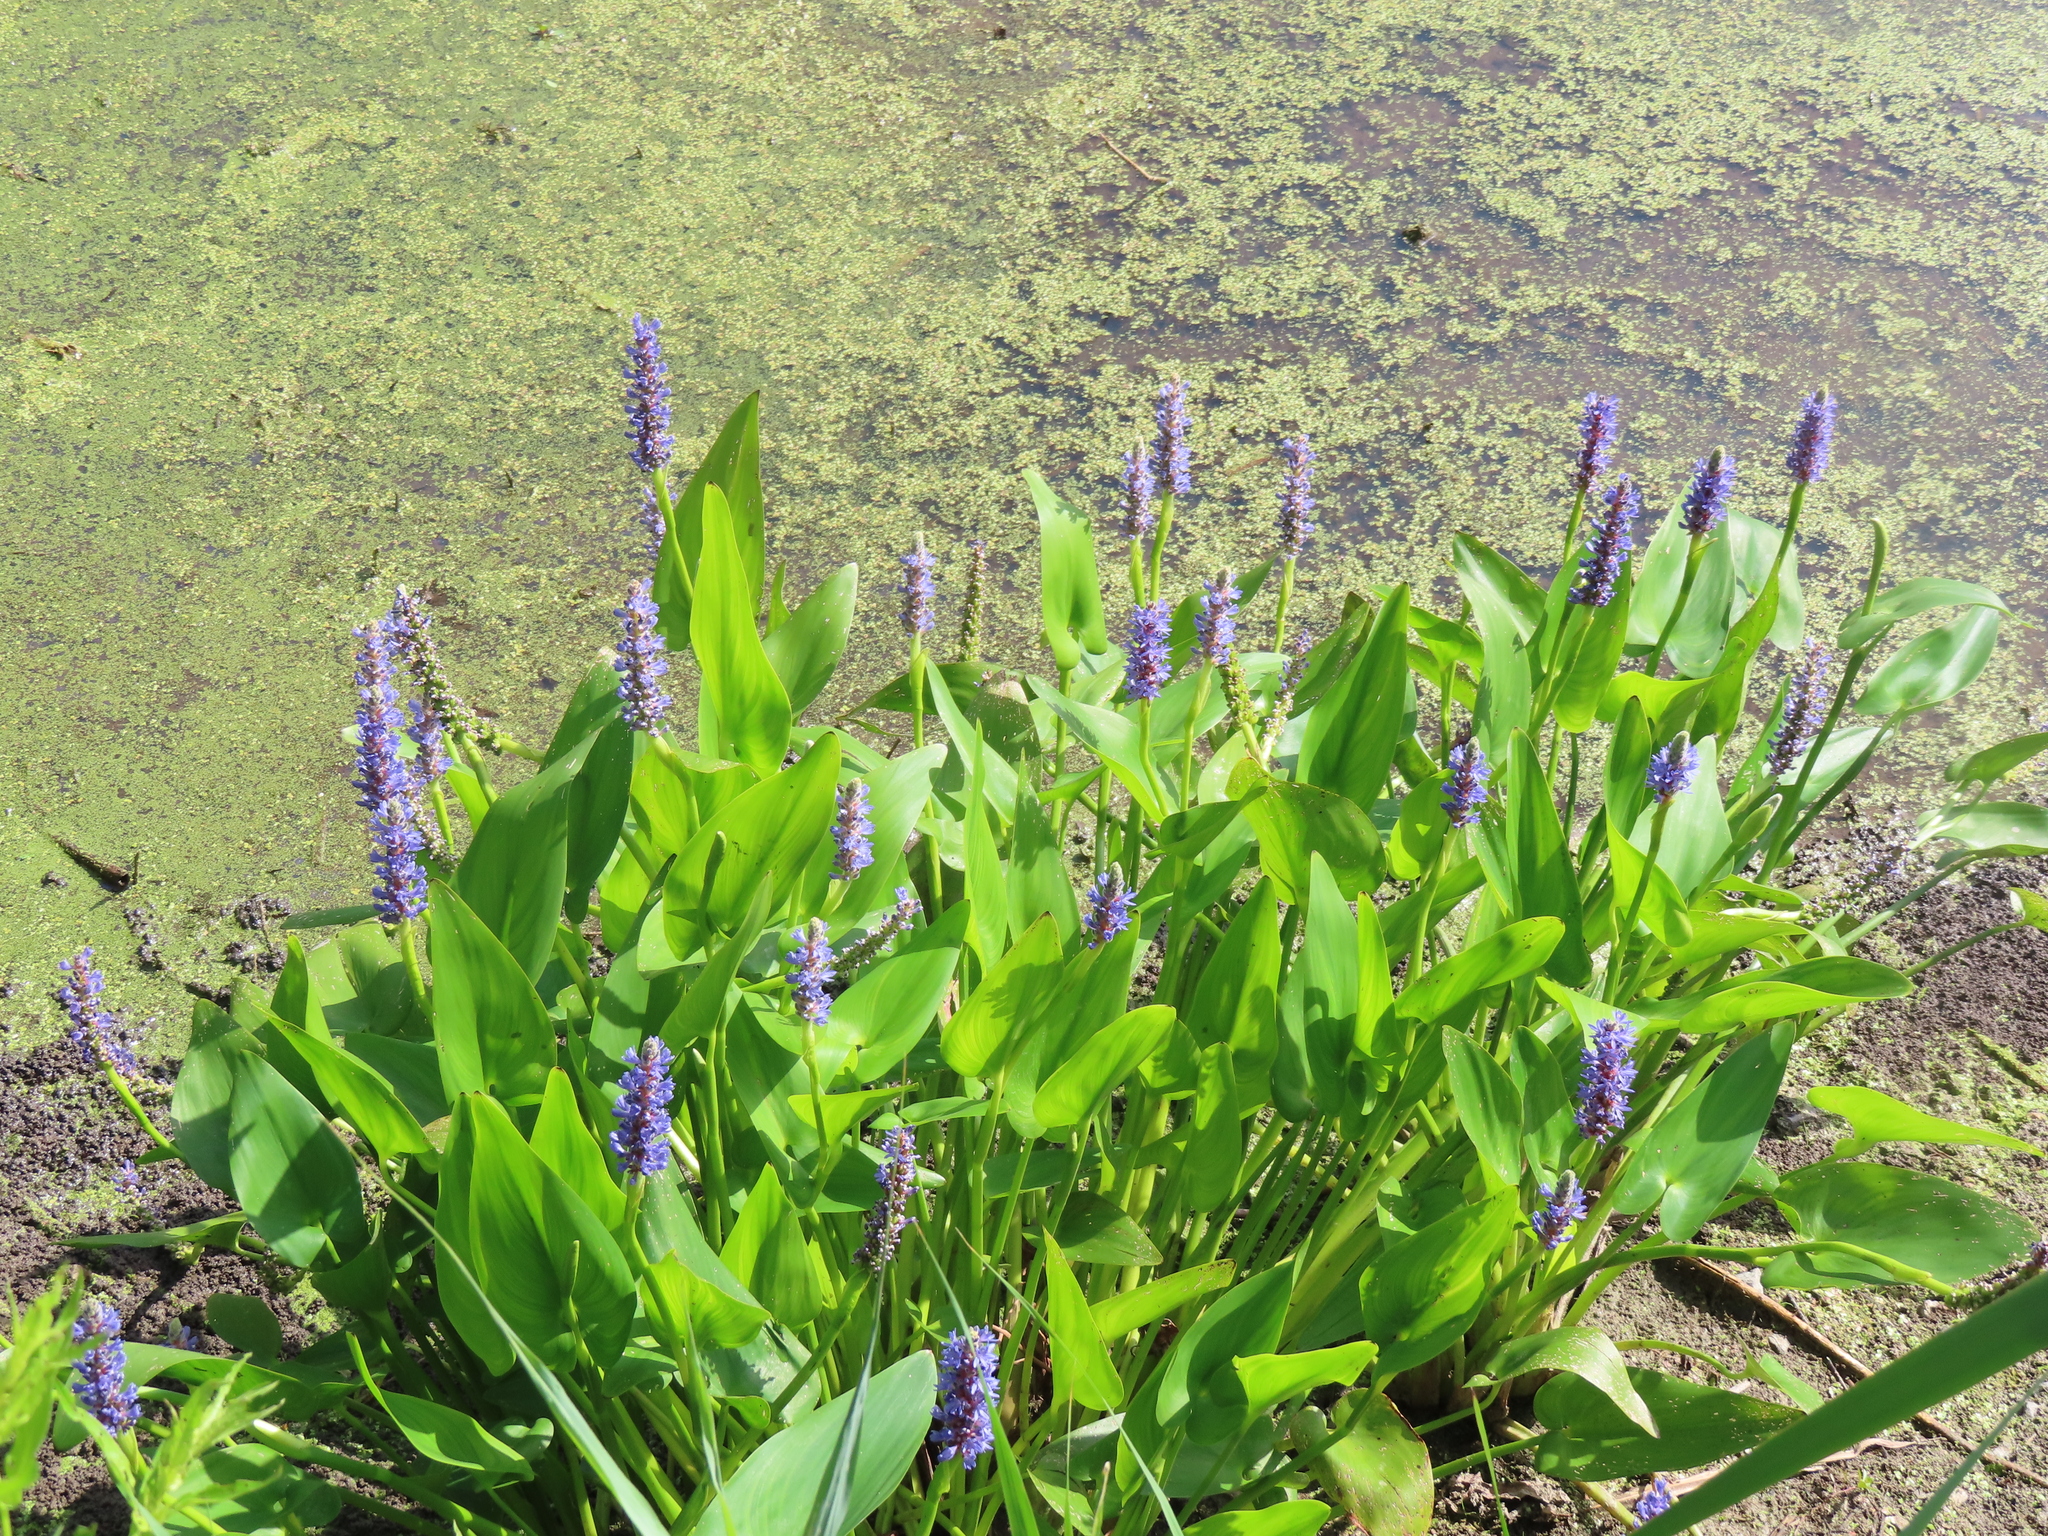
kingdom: Plantae
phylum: Tracheophyta
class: Liliopsida
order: Commelinales
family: Pontederiaceae
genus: Pontederia
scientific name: Pontederia cordata
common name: Pickerelweed
